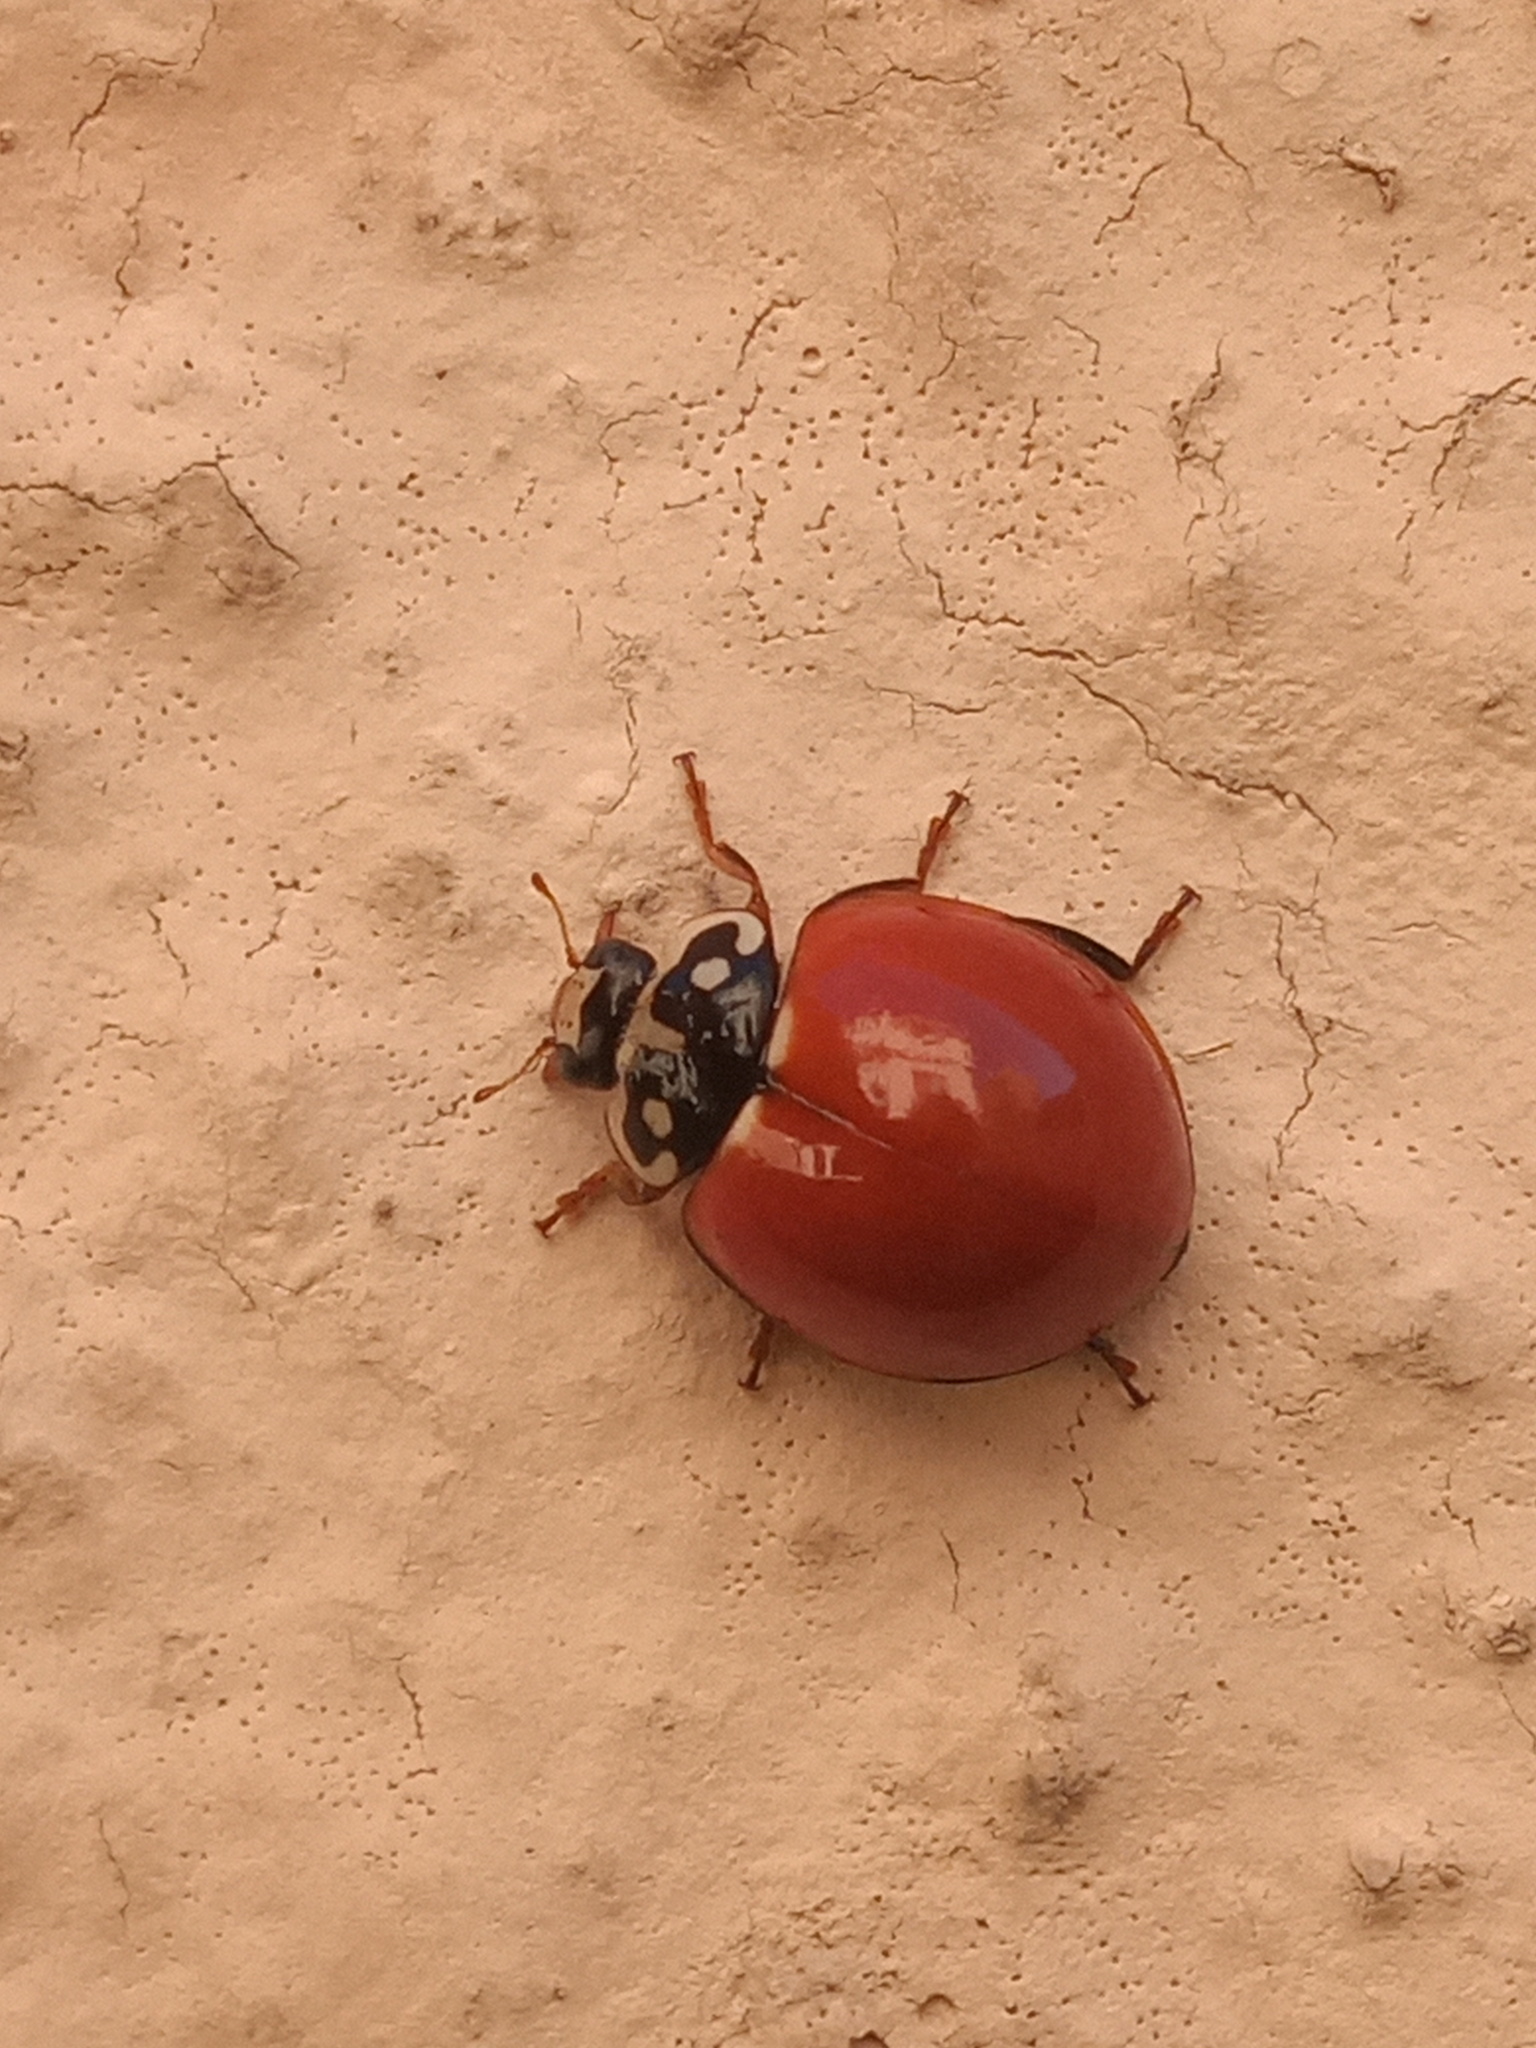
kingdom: Animalia
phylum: Arthropoda
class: Insecta
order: Coleoptera
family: Coccinellidae
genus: Cycloneda
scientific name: Cycloneda sanguinea
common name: Ladybird beetle
